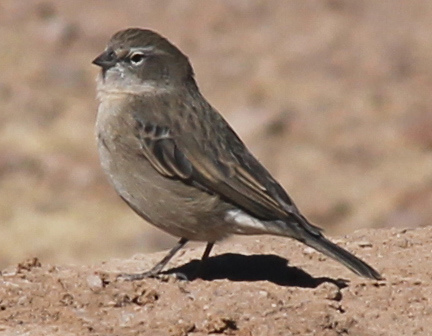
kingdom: Animalia
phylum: Chordata
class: Aves
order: Passeriformes
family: Thraupidae
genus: Geospizopsis
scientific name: Geospizopsis plebejus
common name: Ash-breasted sierra-finch
